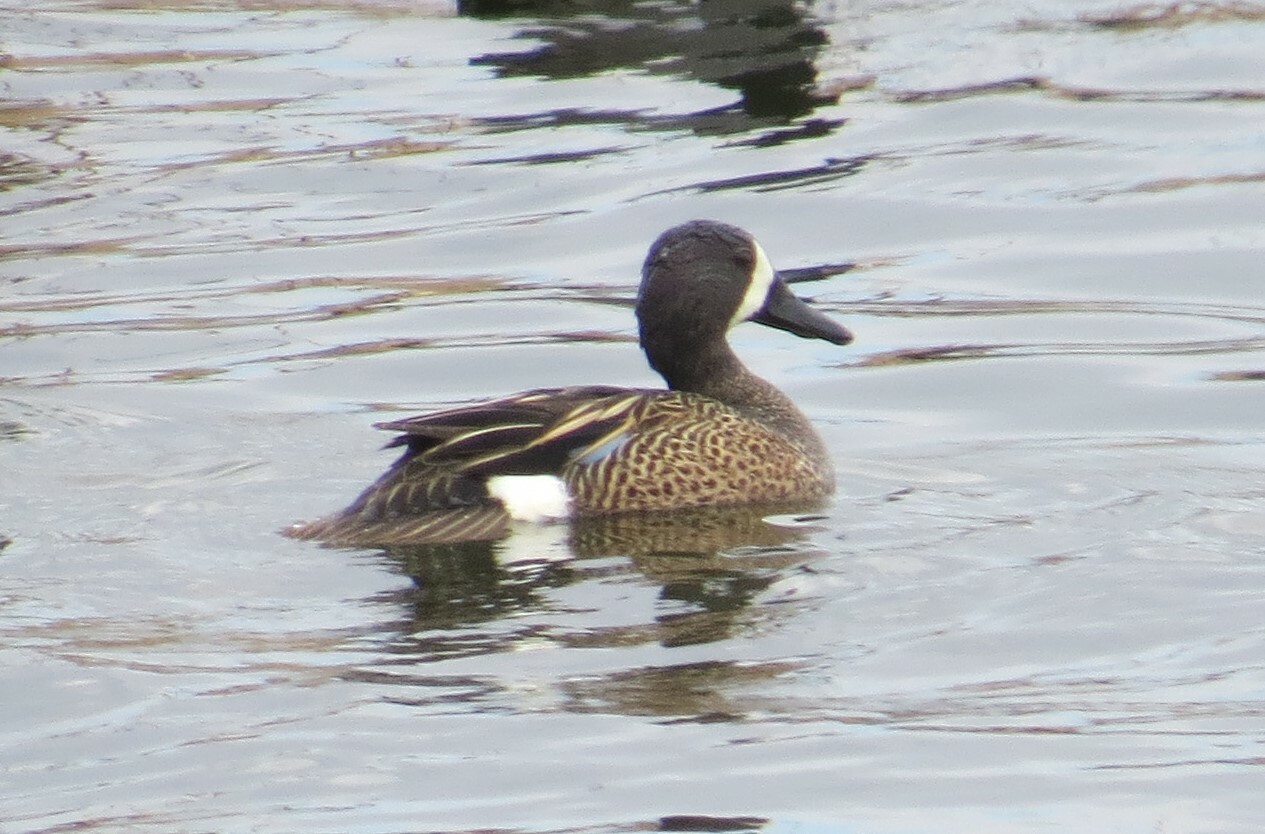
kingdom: Animalia
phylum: Chordata
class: Aves
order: Anseriformes
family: Anatidae
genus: Spatula
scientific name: Spatula discors
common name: Blue-winged teal
